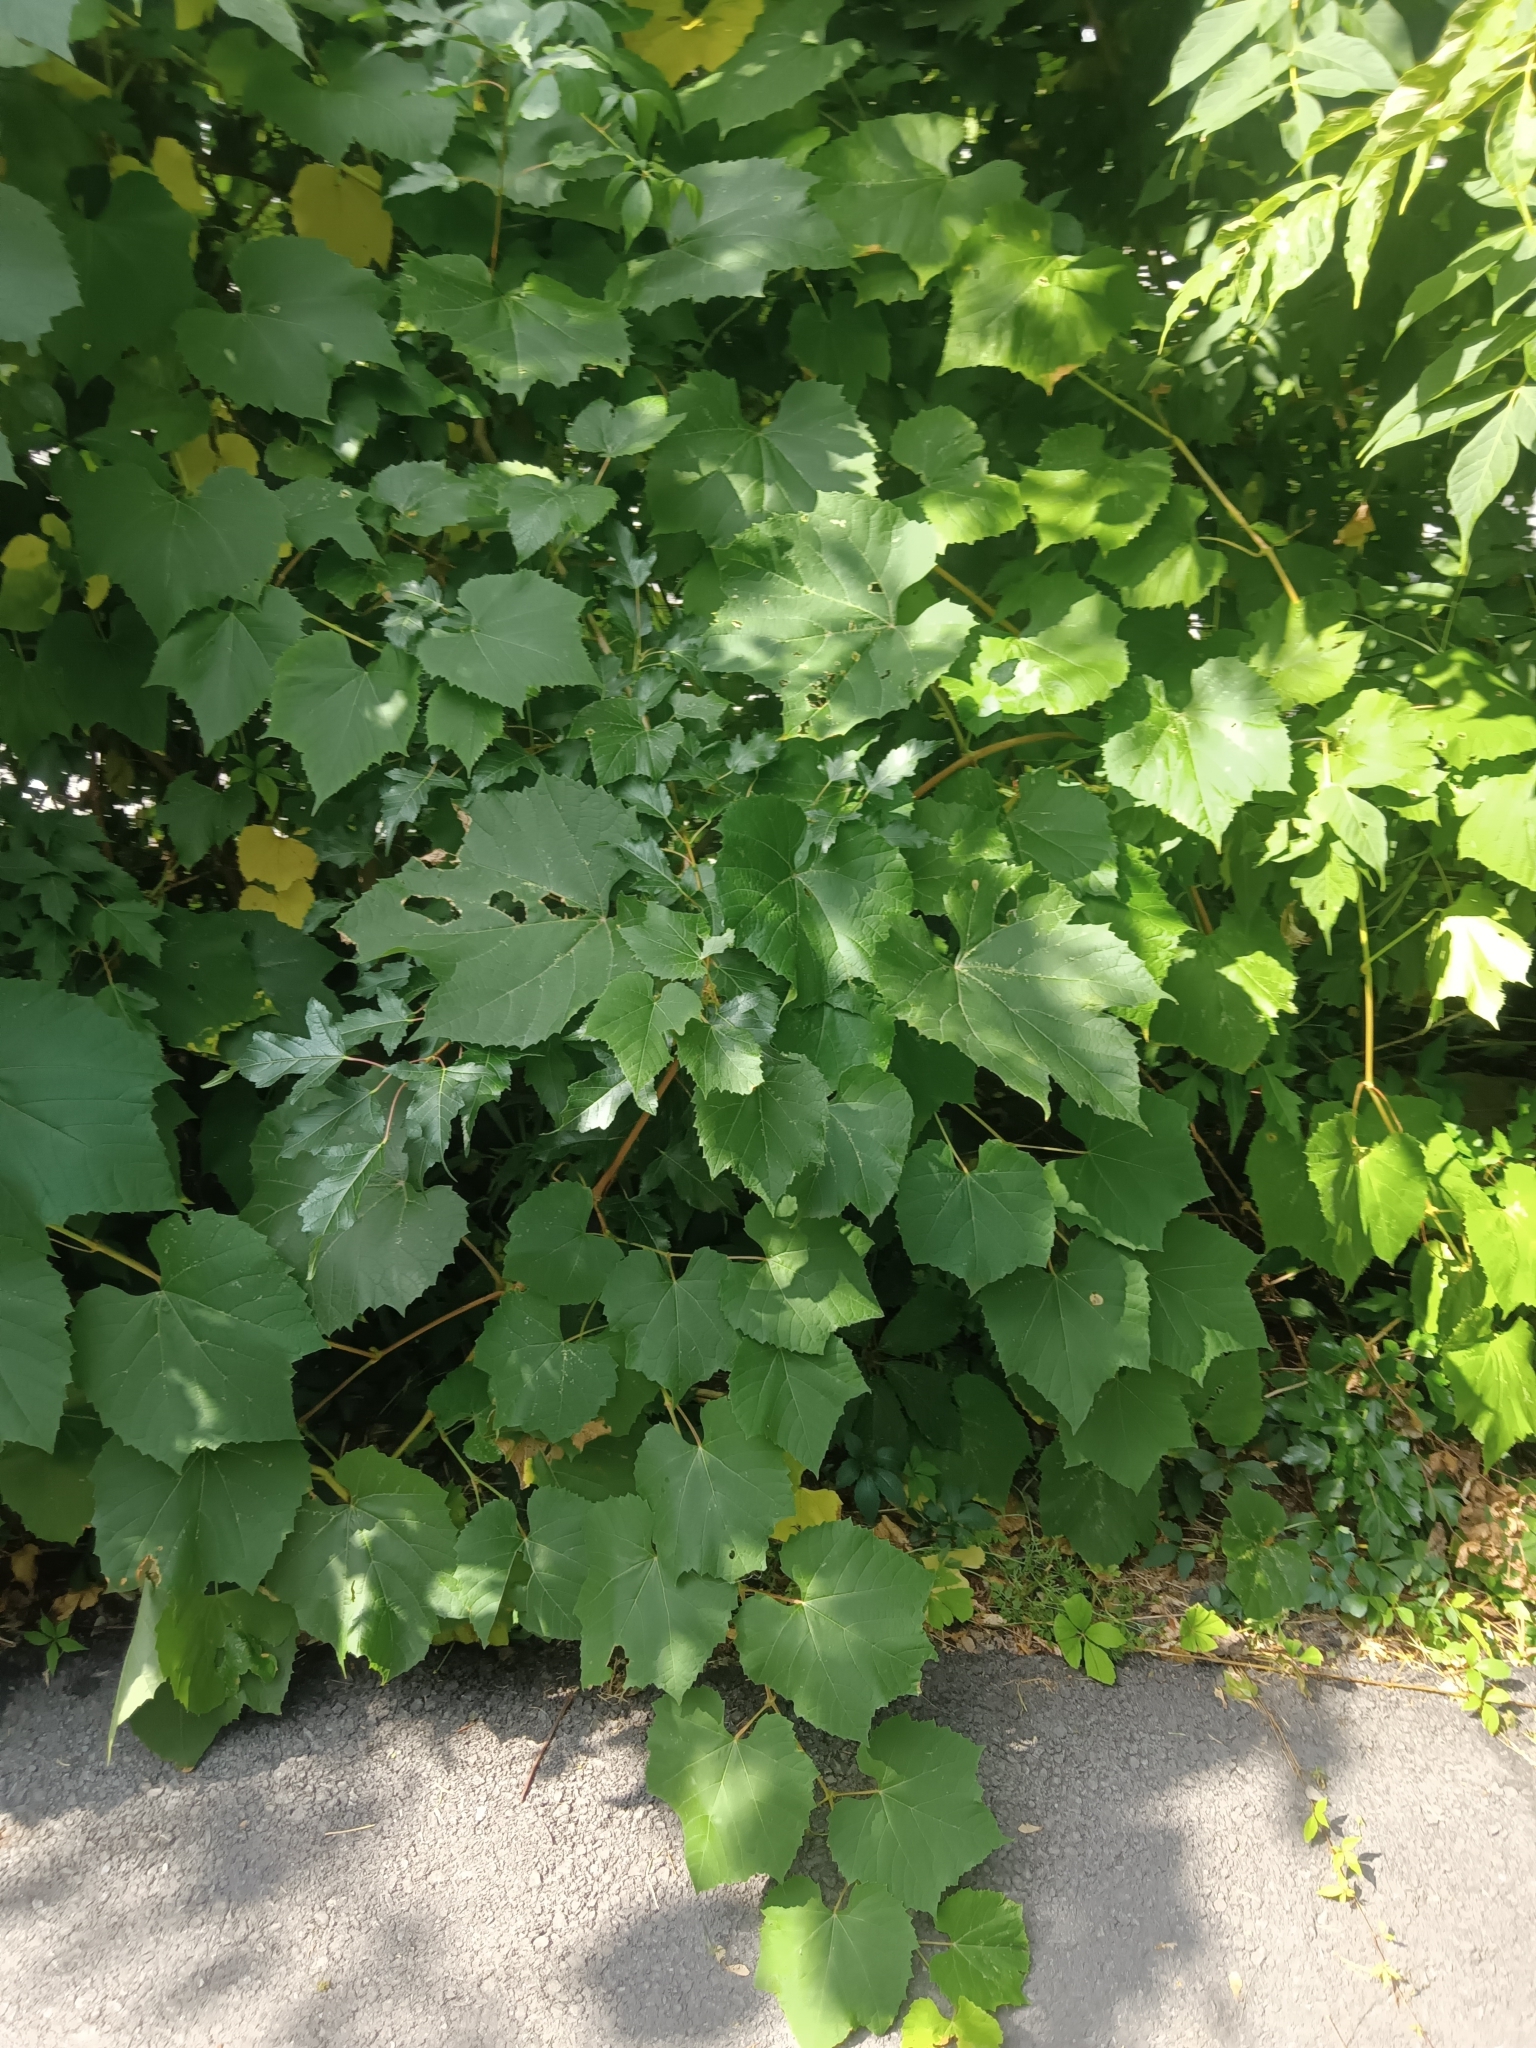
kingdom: Plantae
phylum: Tracheophyta
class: Magnoliopsida
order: Vitales
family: Vitaceae
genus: Vitis
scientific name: Vitis riparia
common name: Frost grape
